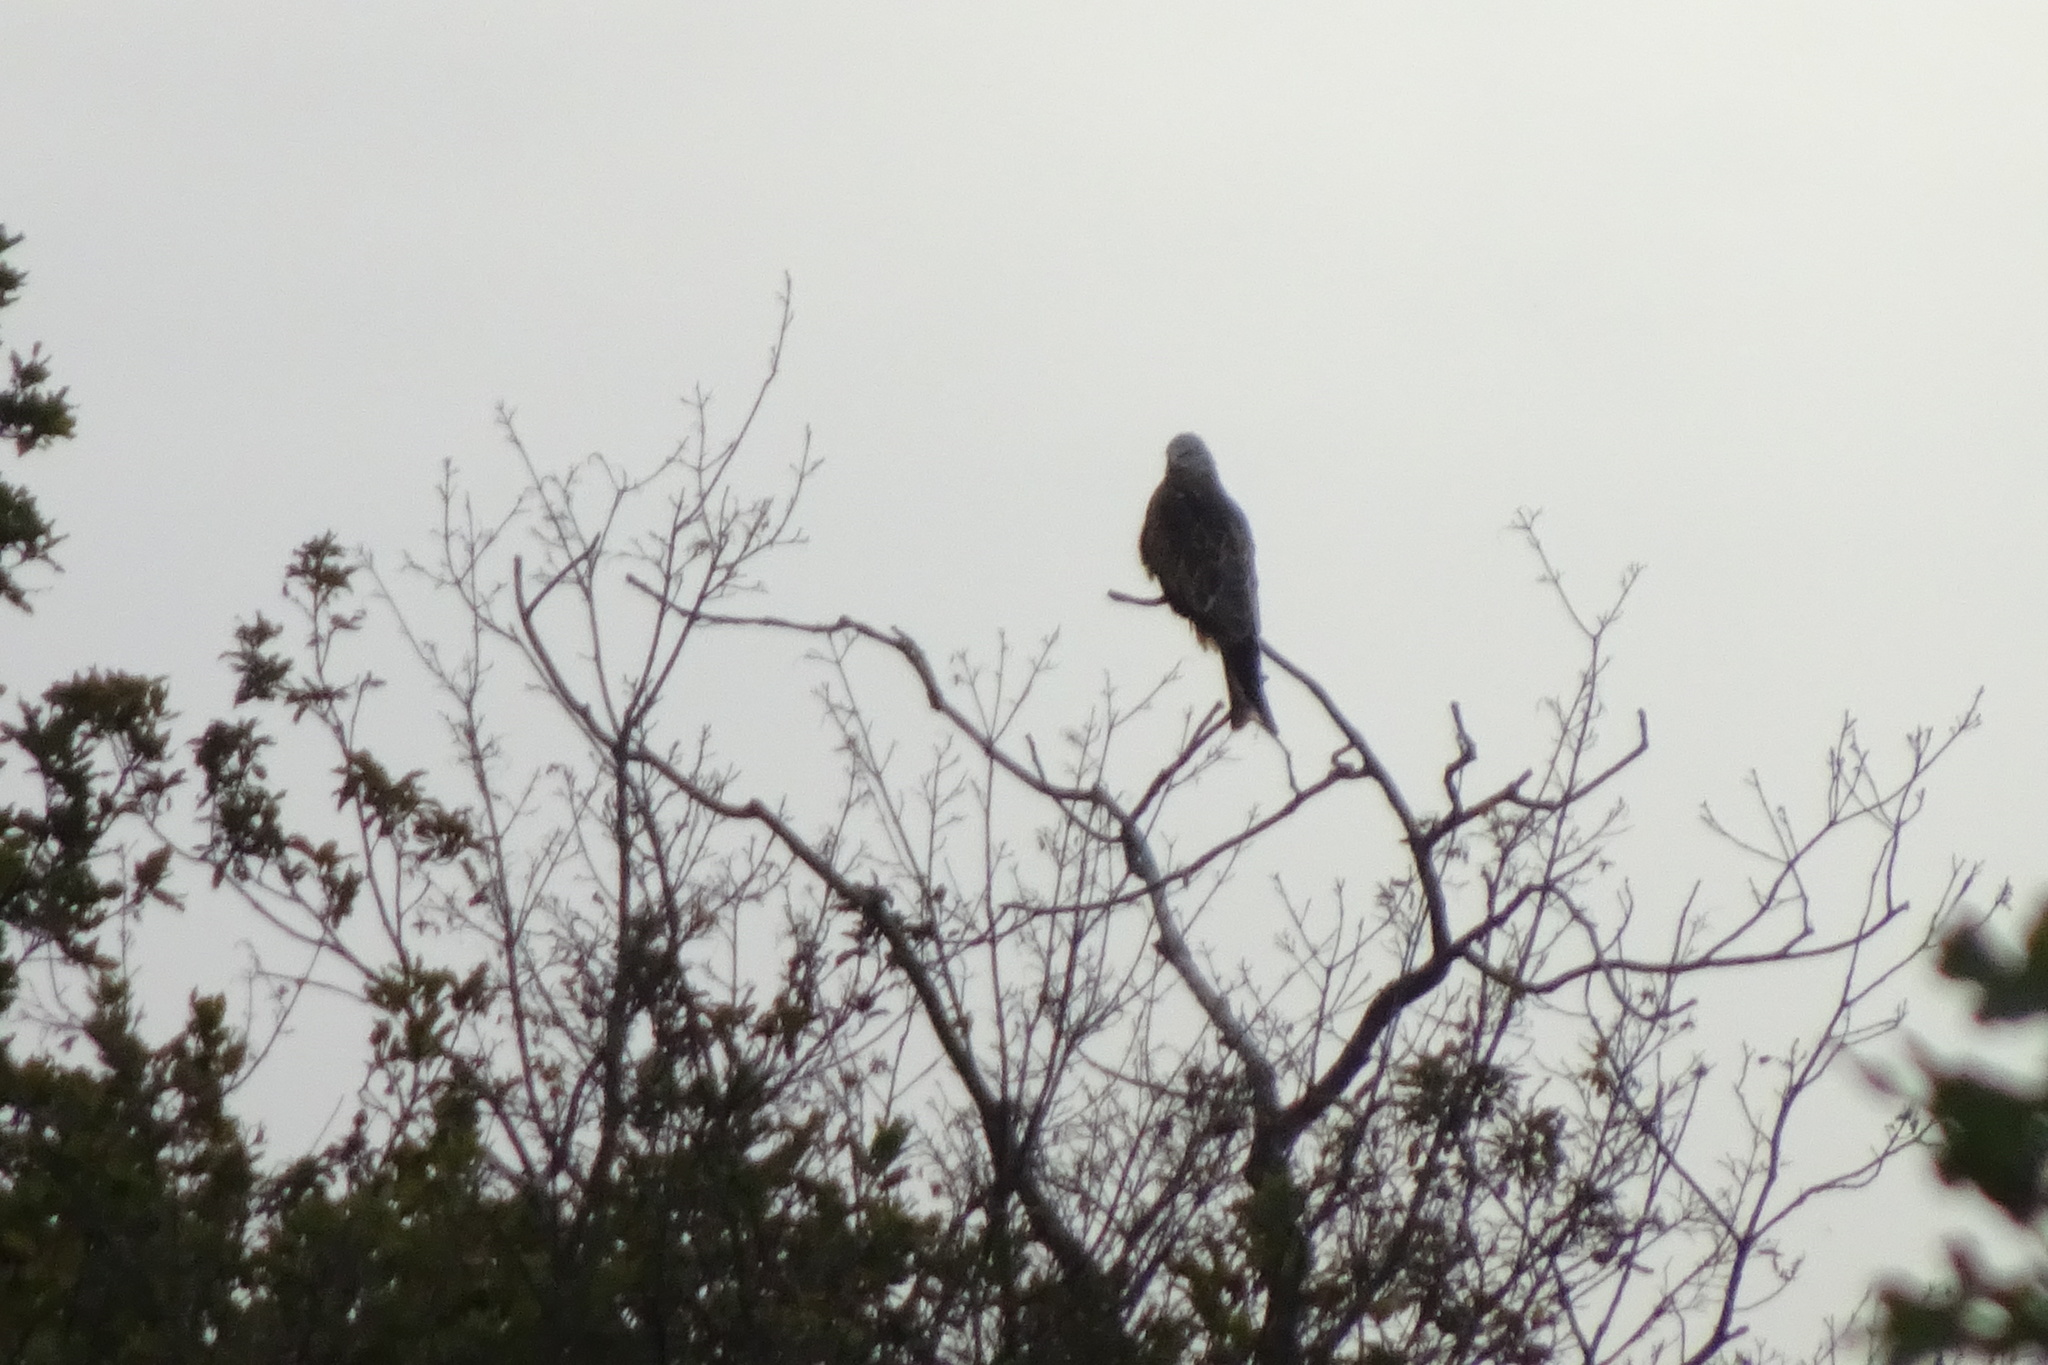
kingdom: Animalia
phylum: Chordata
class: Aves
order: Accipitriformes
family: Accipitridae
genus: Milvus
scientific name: Milvus milvus
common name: Red kite
